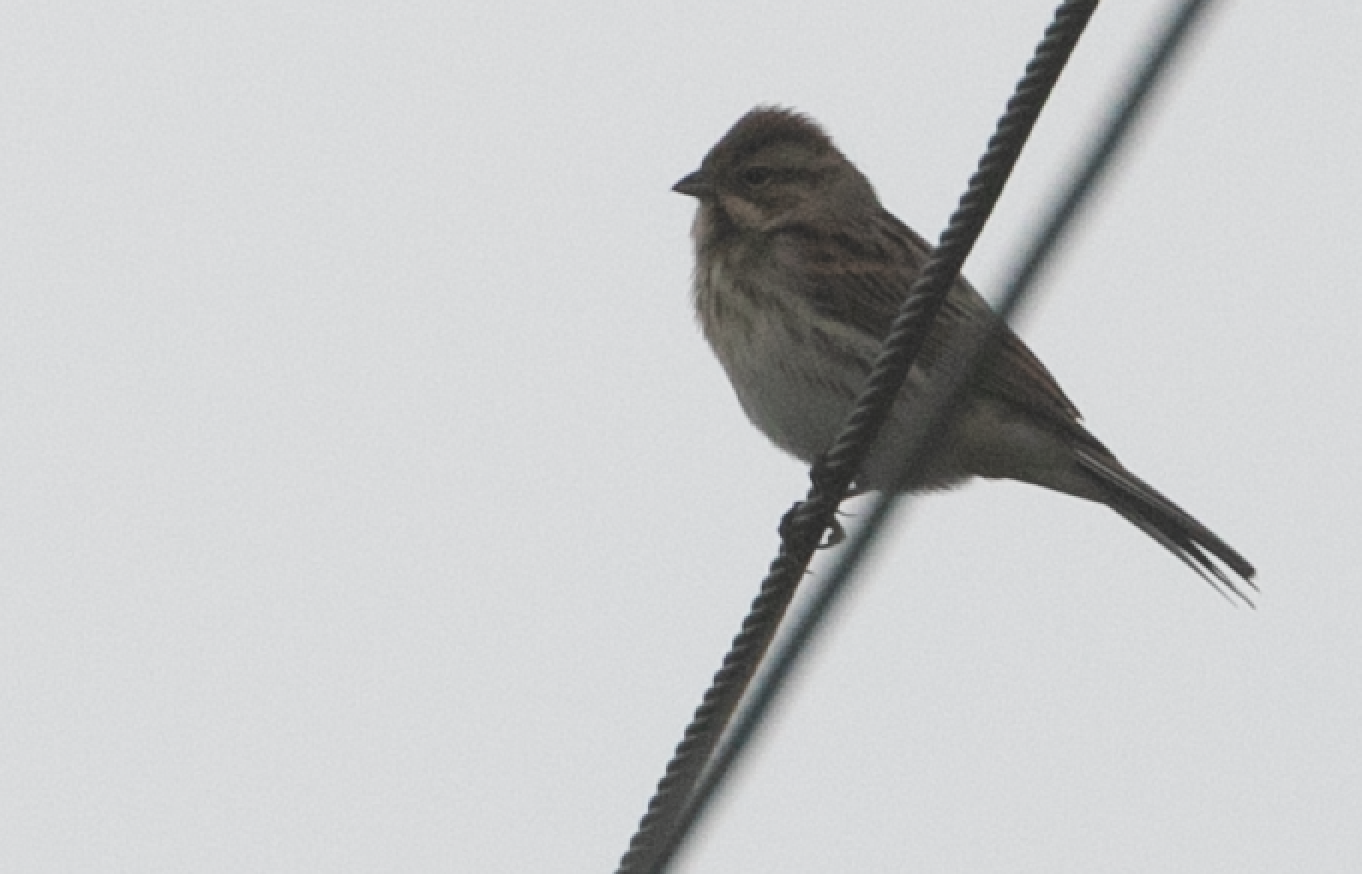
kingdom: Animalia
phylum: Chordata
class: Aves
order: Passeriformes
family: Emberizidae
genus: Emberiza
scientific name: Emberiza schoeniclus
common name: Reed bunting
